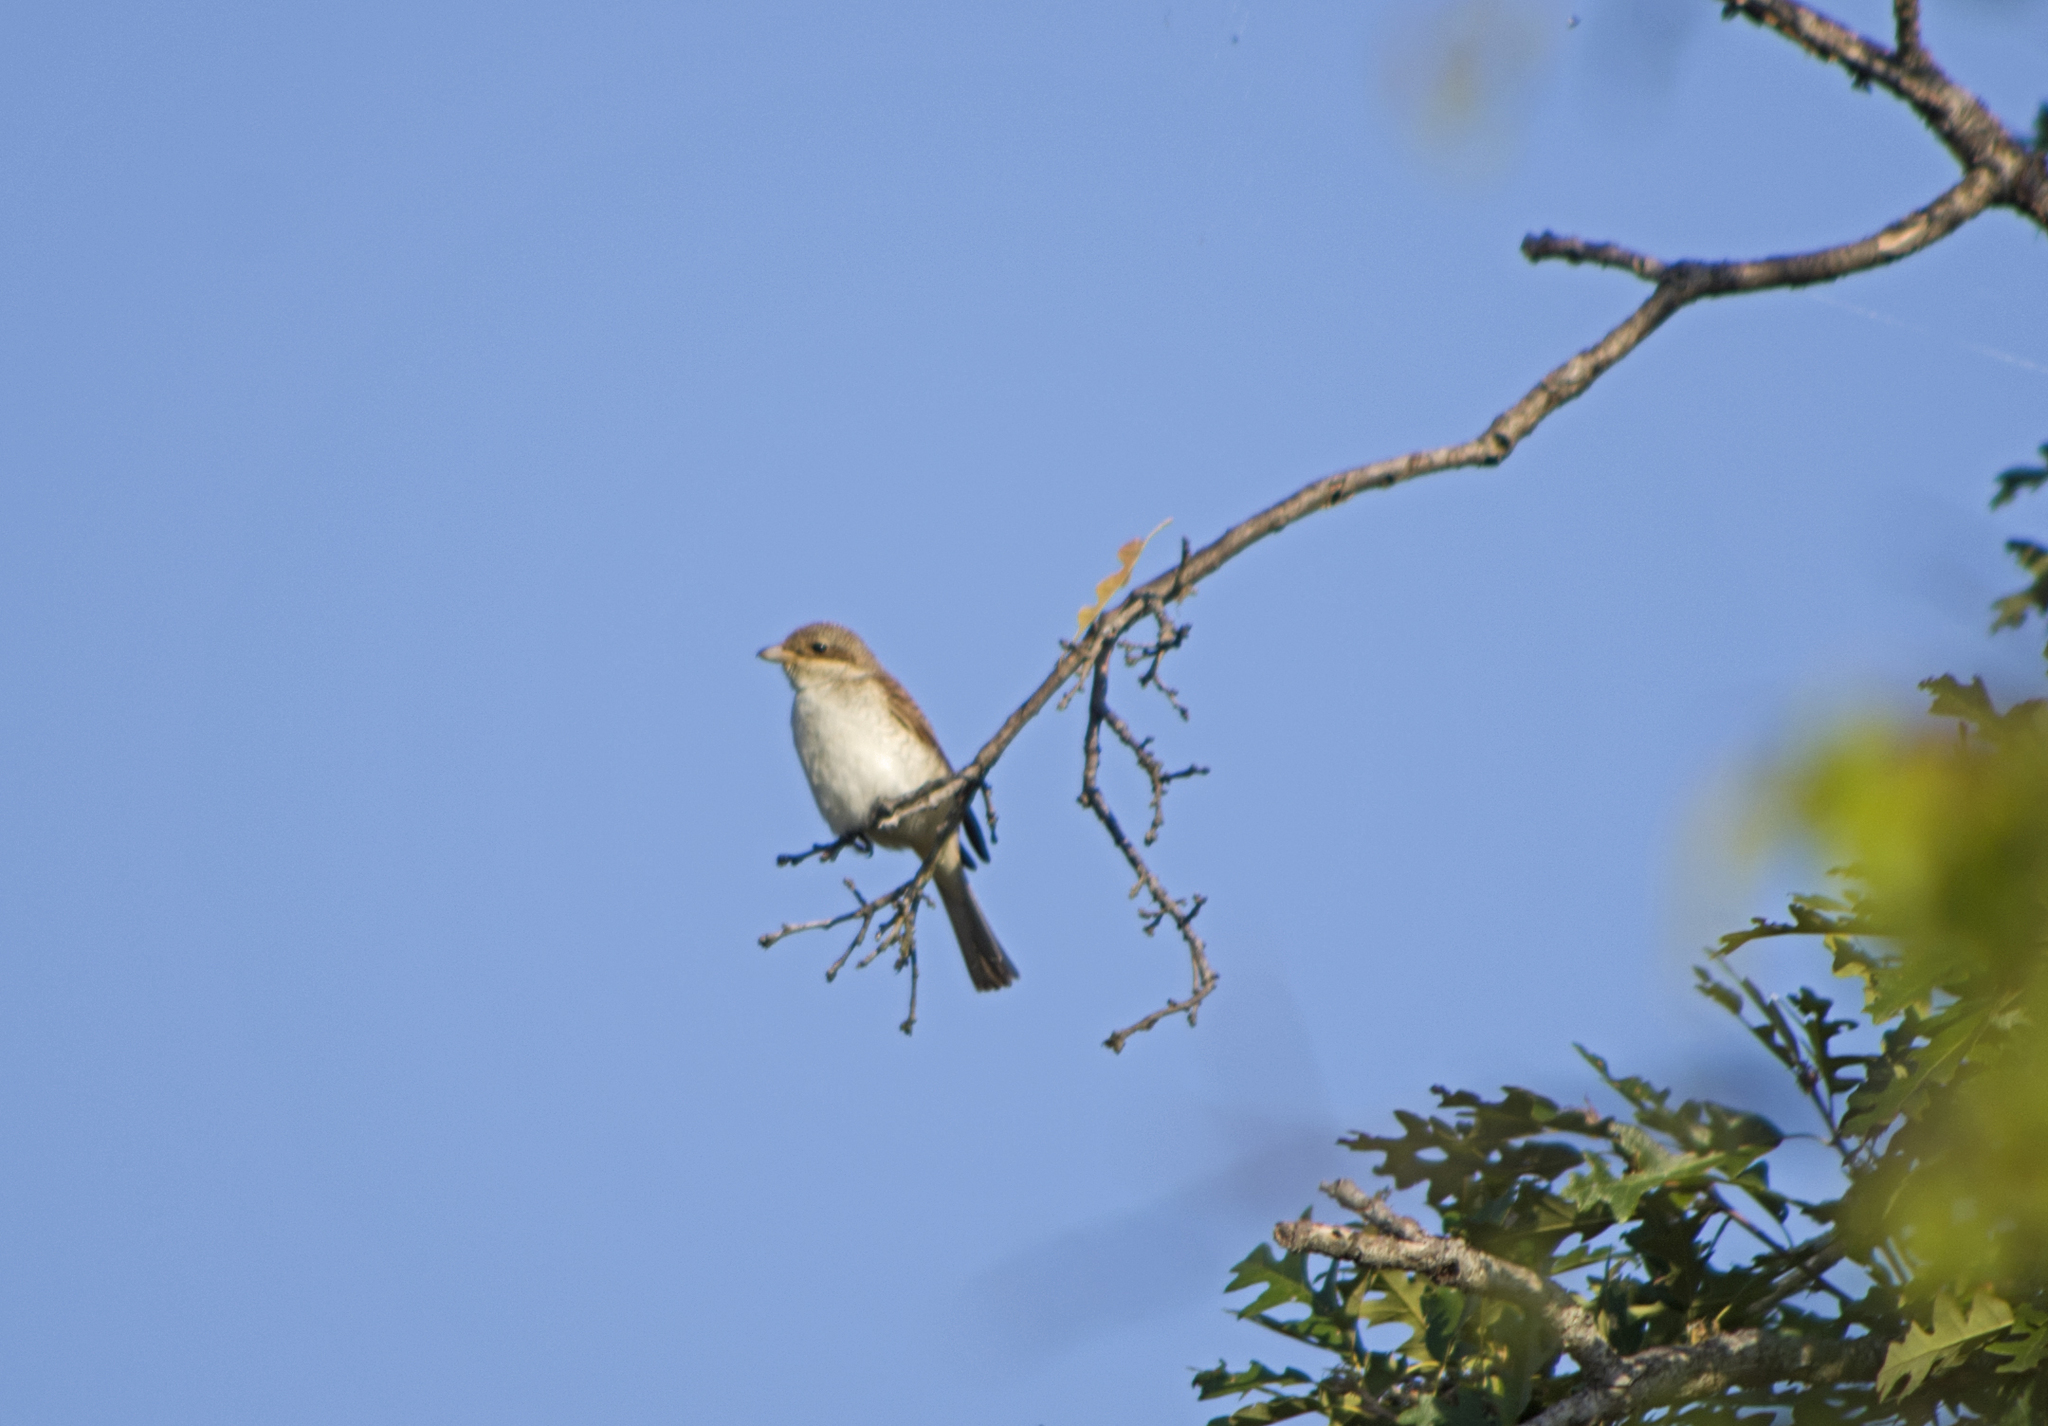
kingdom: Animalia
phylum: Chordata
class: Aves
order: Passeriformes
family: Laniidae
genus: Lanius
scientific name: Lanius collurio
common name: Red-backed shrike
